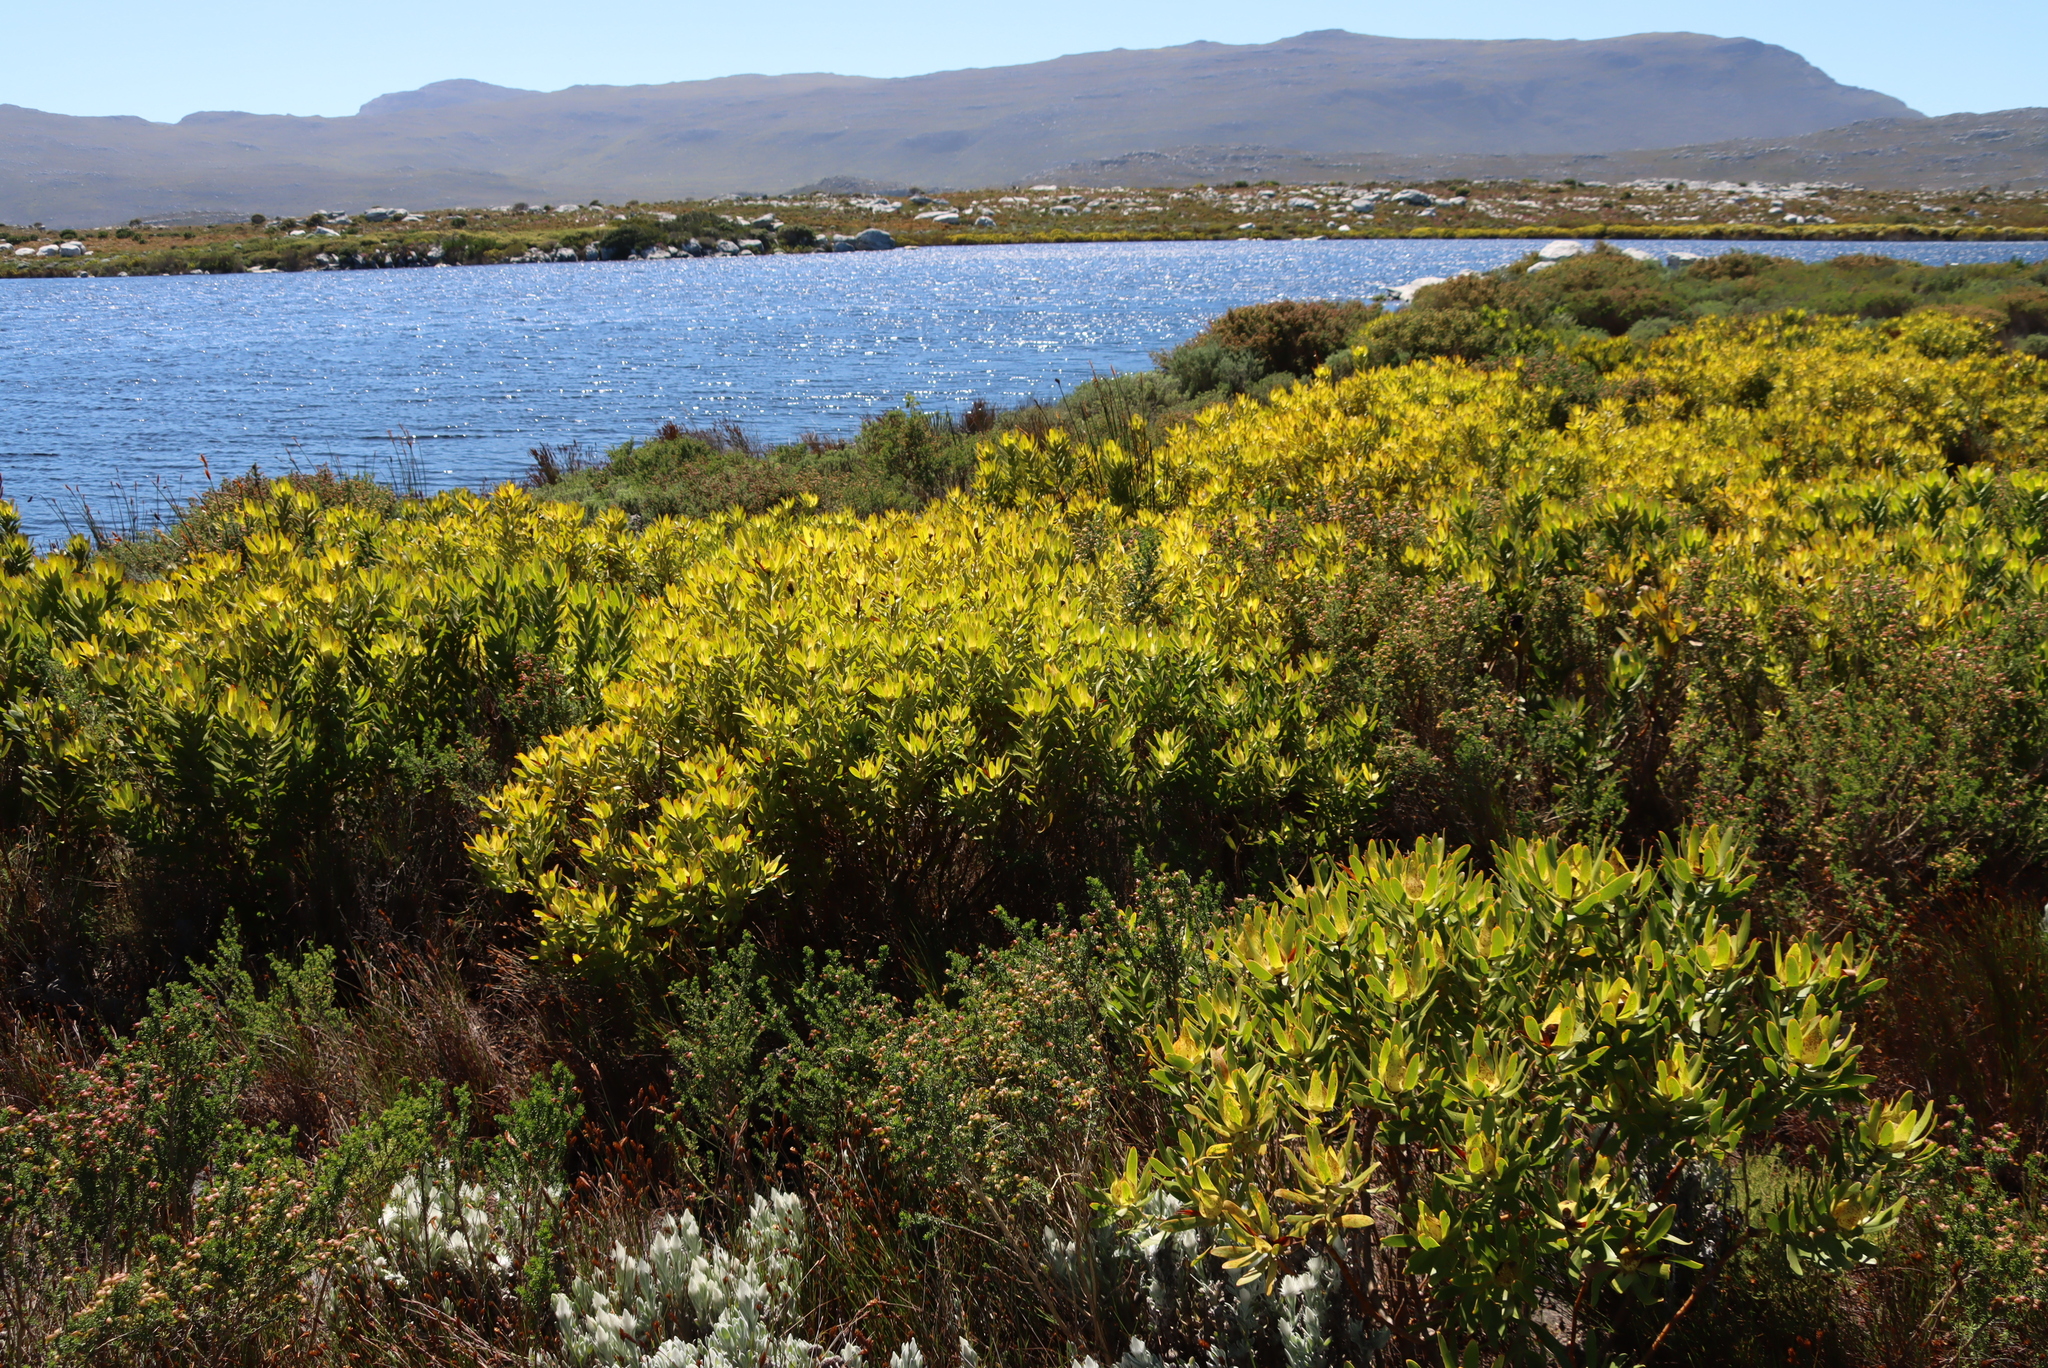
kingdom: Plantae
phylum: Tracheophyta
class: Magnoliopsida
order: Proteales
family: Proteaceae
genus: Leucadendron
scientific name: Leucadendron laureolum
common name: Golden sunshinebush
